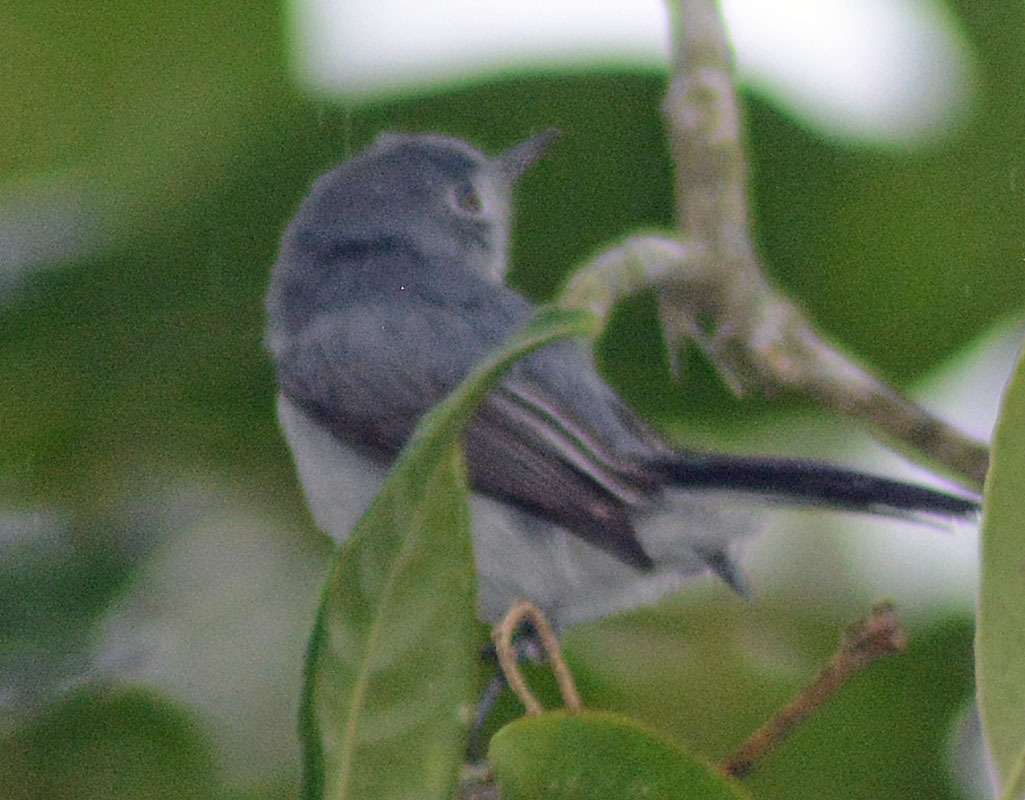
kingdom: Animalia
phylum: Chordata
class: Aves
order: Passeriformes
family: Polioptilidae
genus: Polioptila
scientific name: Polioptila caerulea
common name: Blue-gray gnatcatcher
